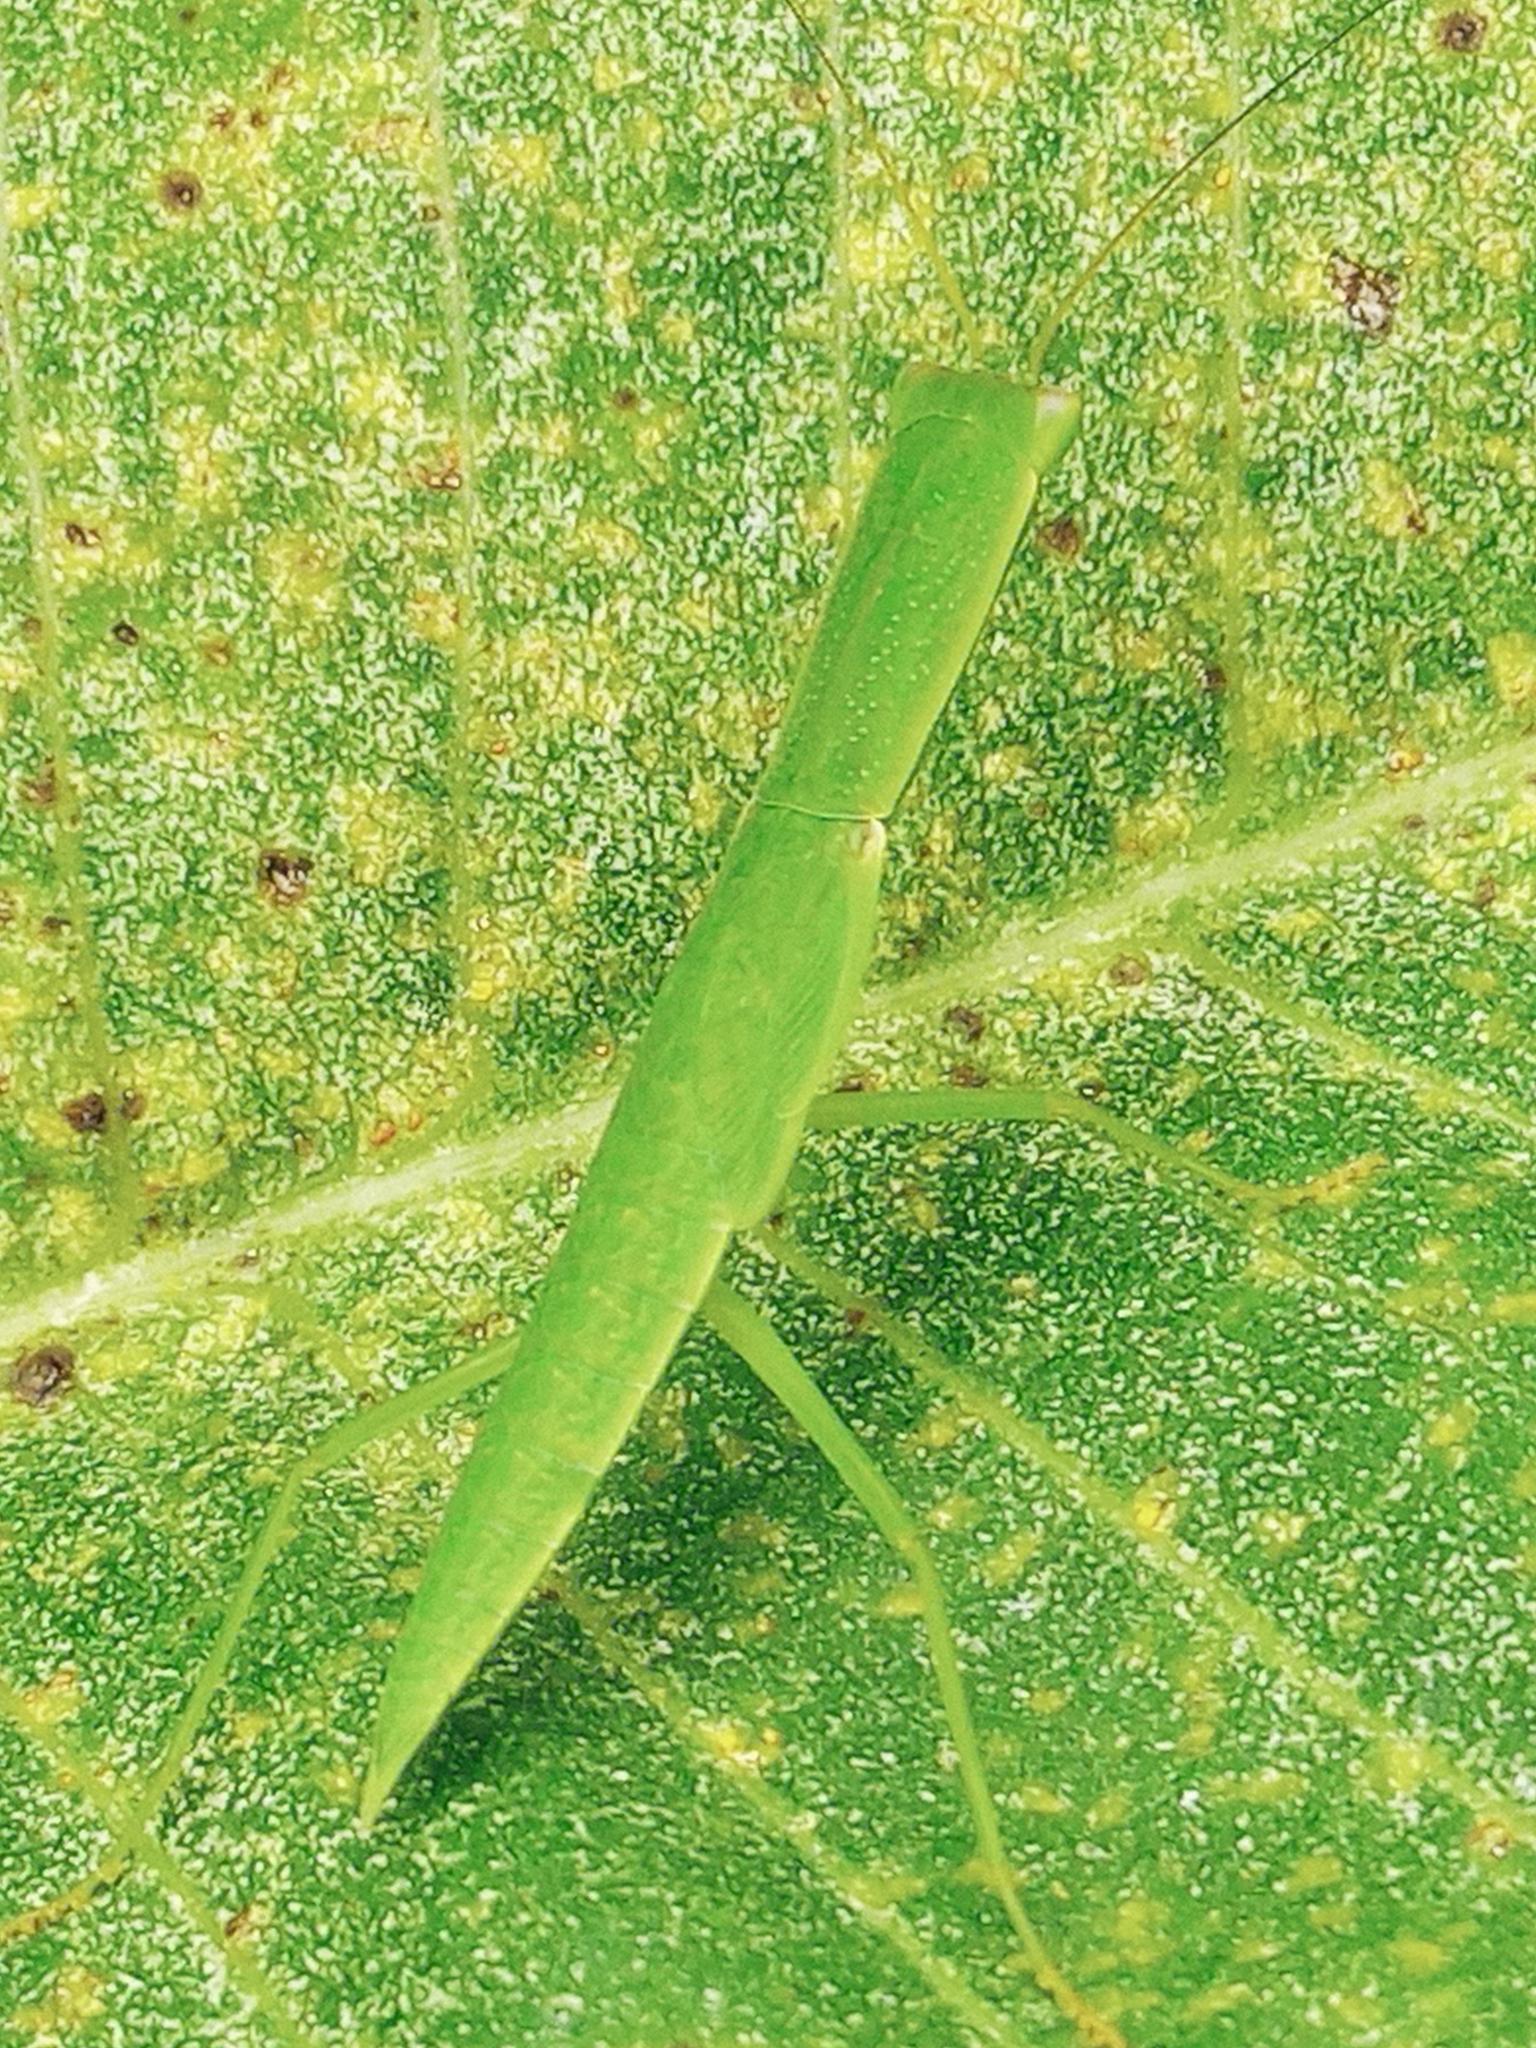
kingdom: Animalia
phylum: Arthropoda
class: Insecta
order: Mantodea
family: Mantidae
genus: Orthodera
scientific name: Orthodera ministralis
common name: Mantis
